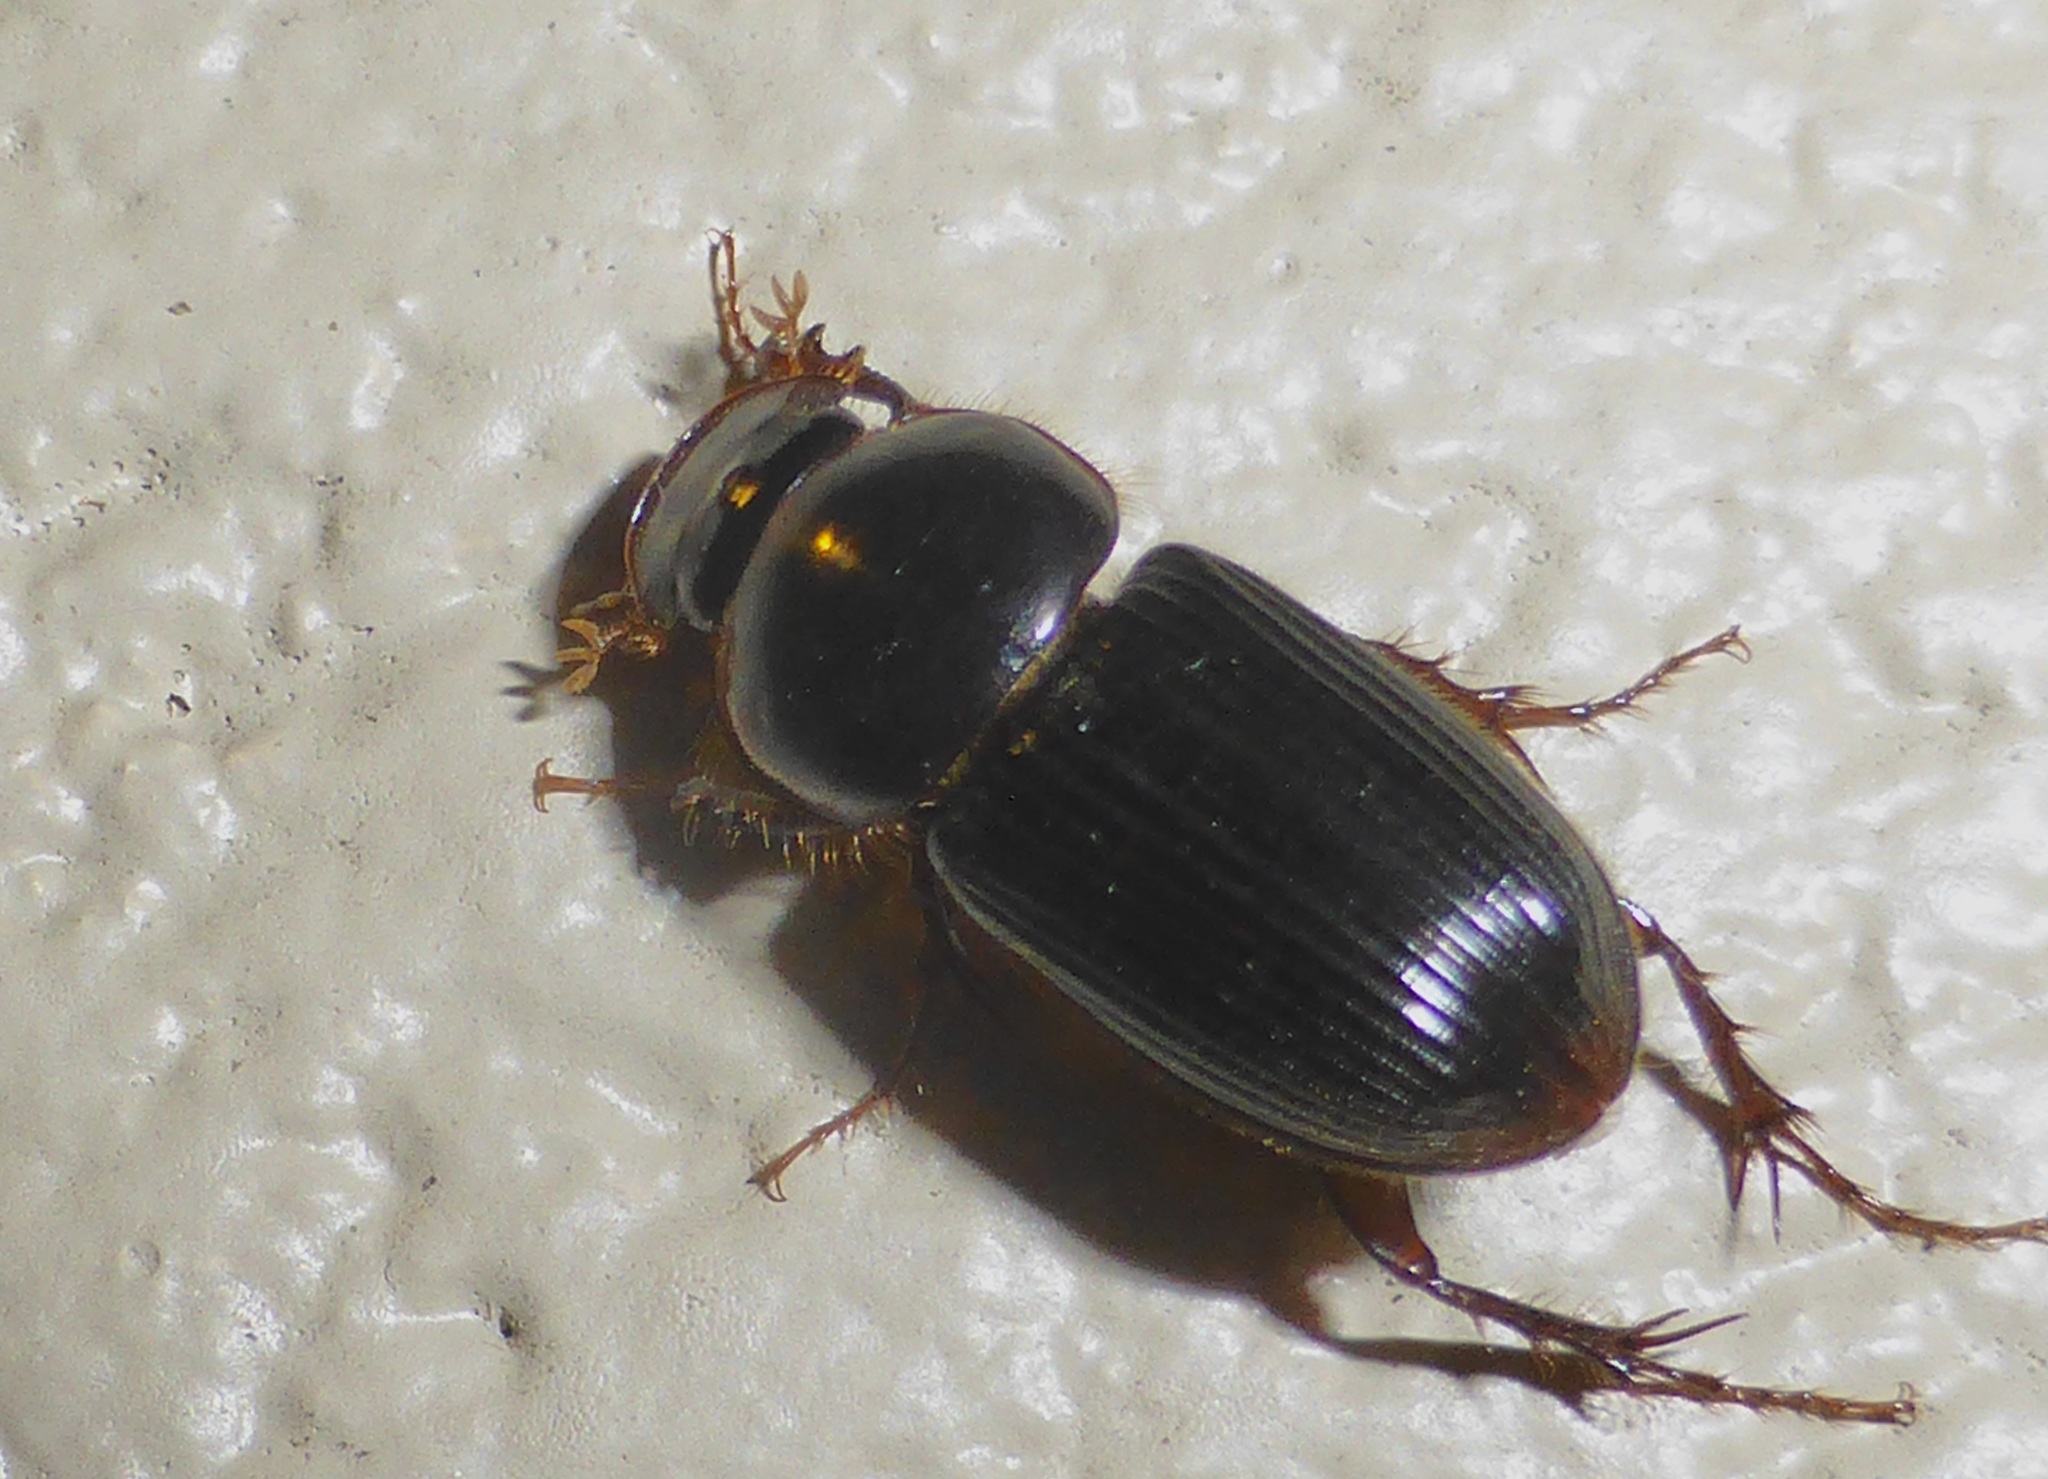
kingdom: Animalia
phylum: Arthropoda
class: Insecta
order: Coleoptera
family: Scarabaeidae
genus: Acrossidius
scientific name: Acrossidius tasmaniae
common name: Black-headed pasture cockchafer
